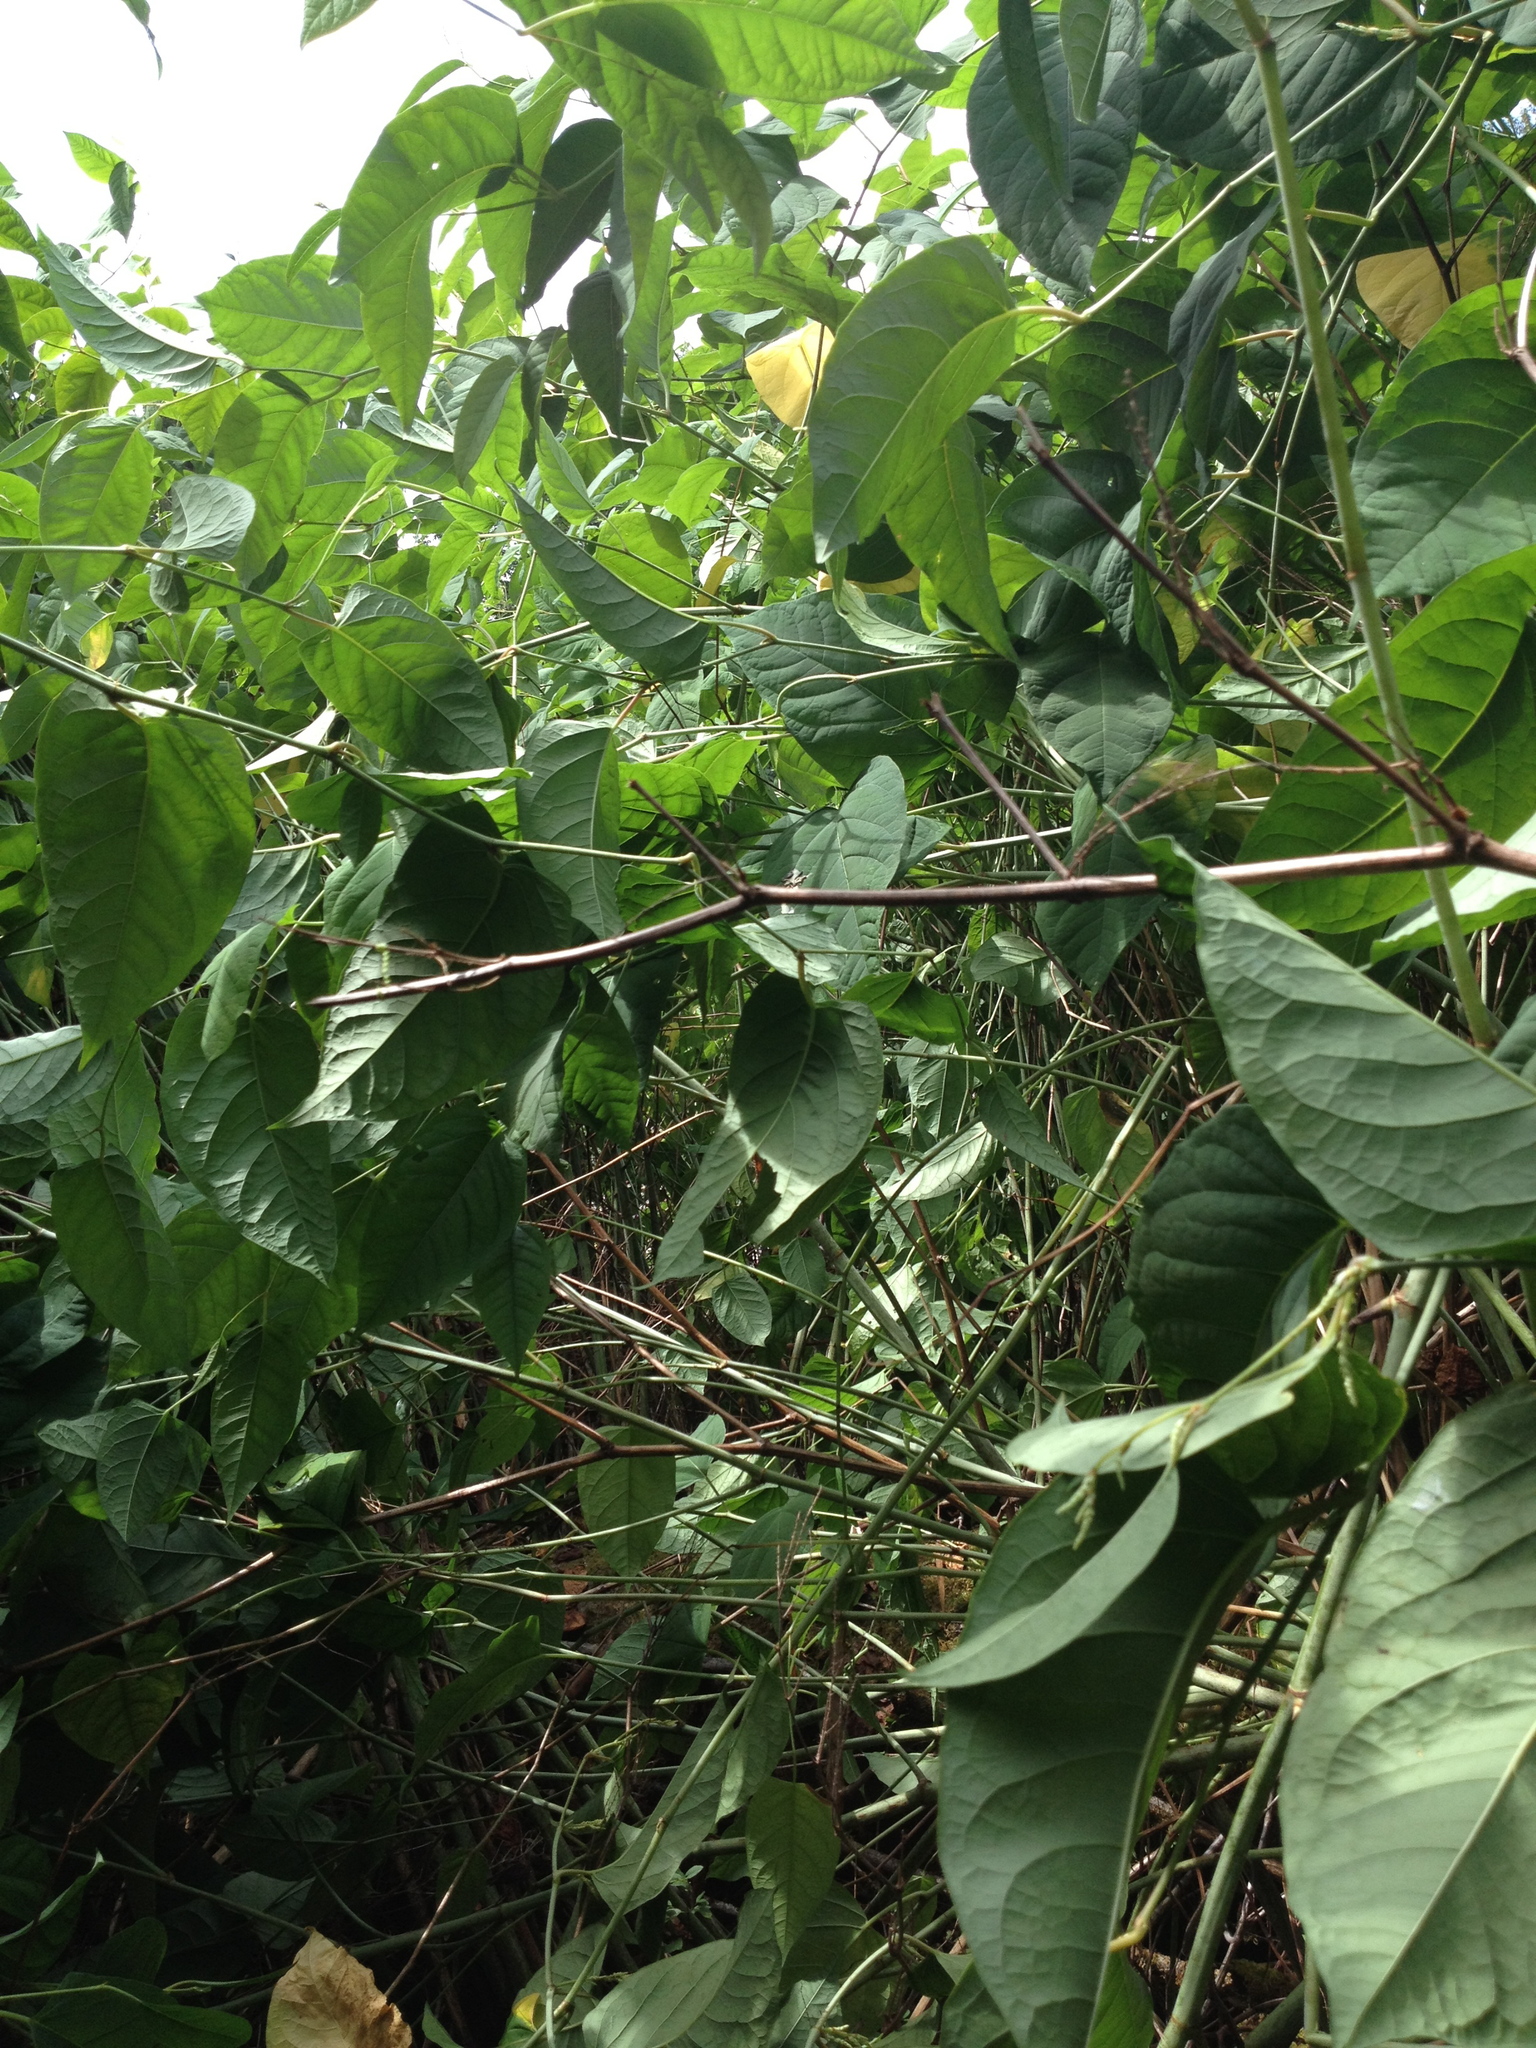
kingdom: Plantae
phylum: Tracheophyta
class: Magnoliopsida
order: Caryophyllales
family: Polygonaceae
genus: Reynoutria
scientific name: Reynoutria japonica
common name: Japanese knotweed
